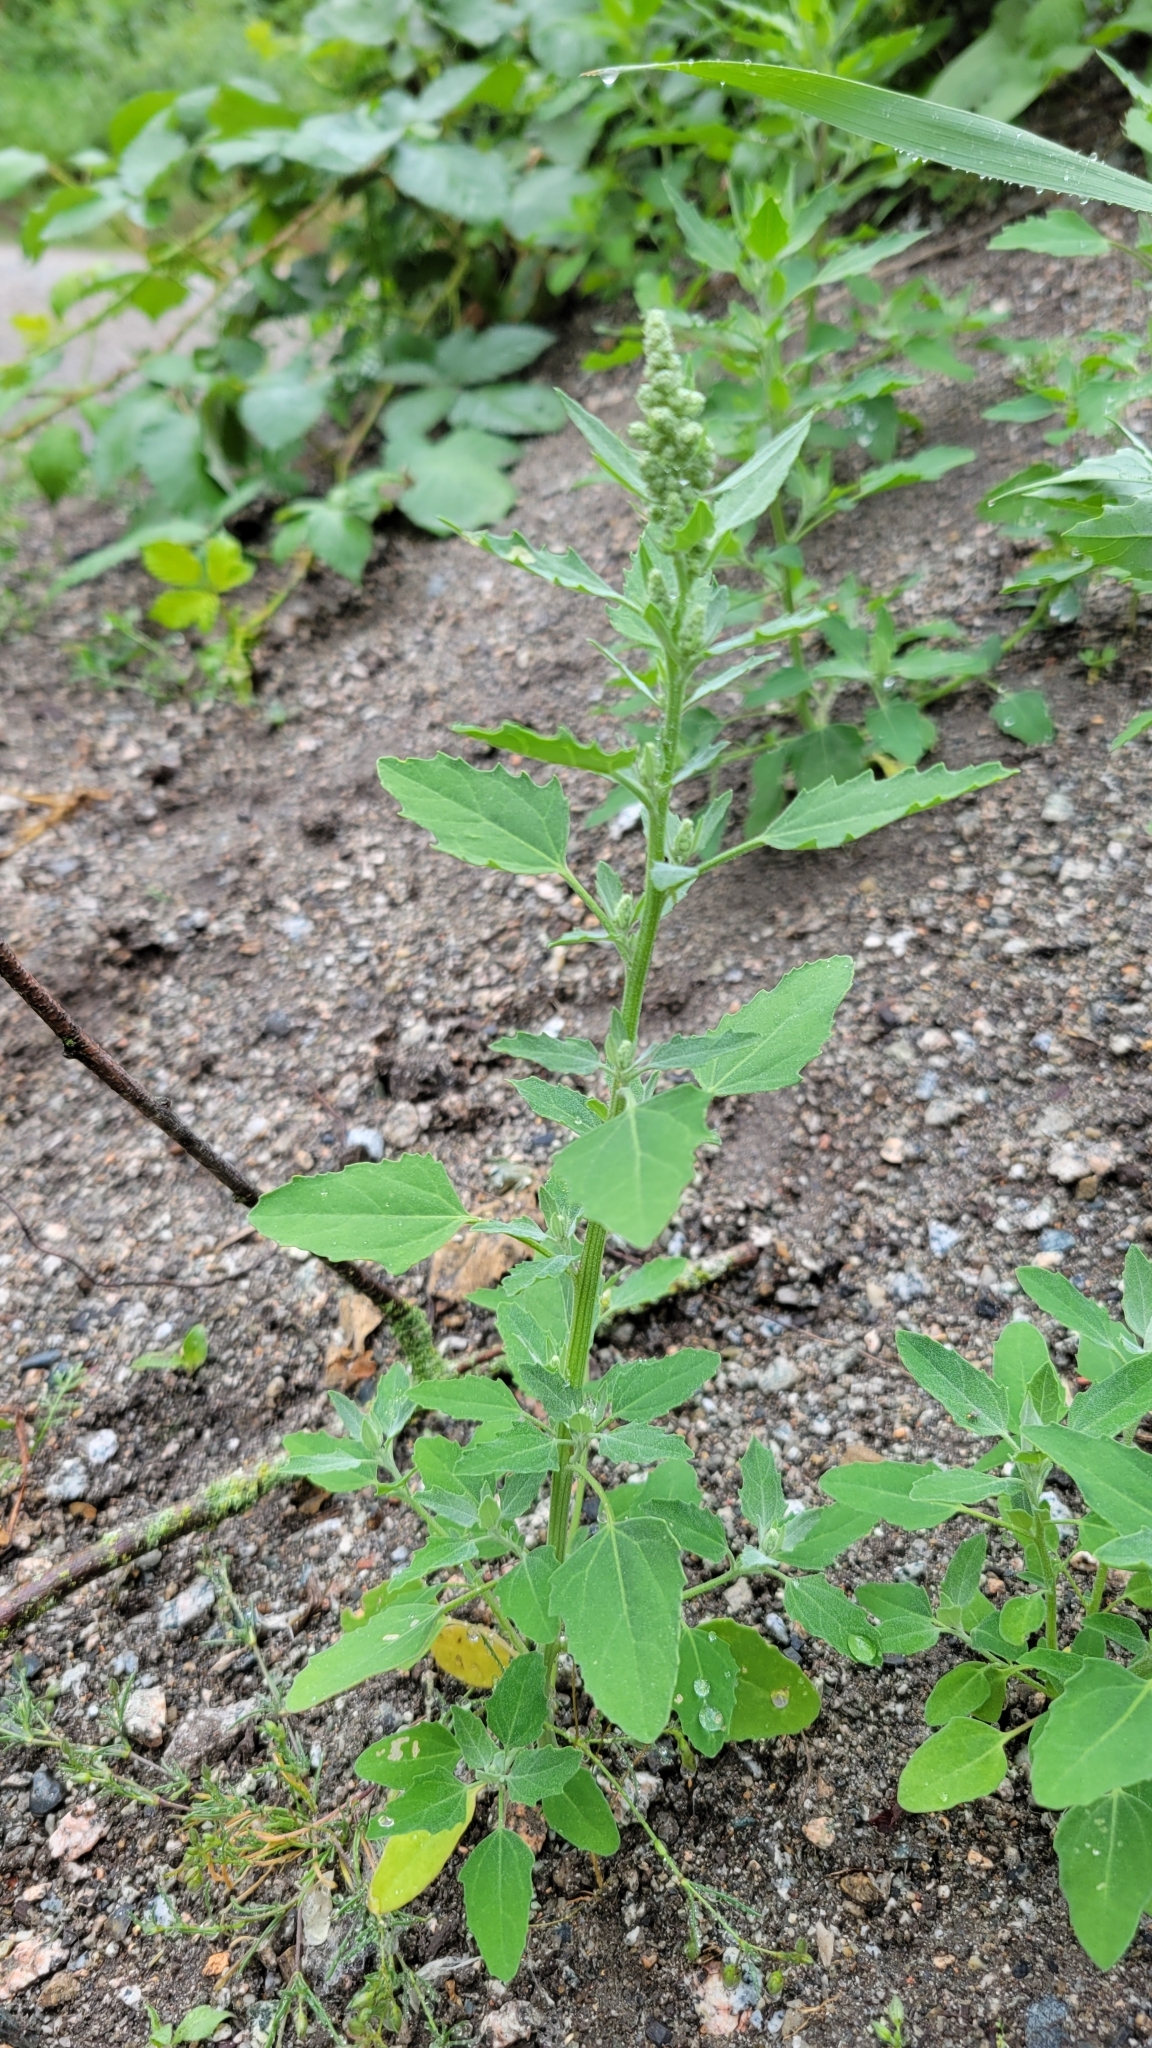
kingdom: Plantae
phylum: Tracheophyta
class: Magnoliopsida
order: Caryophyllales
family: Amaranthaceae
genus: Chenopodium
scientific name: Chenopodium album
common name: Fat-hen
